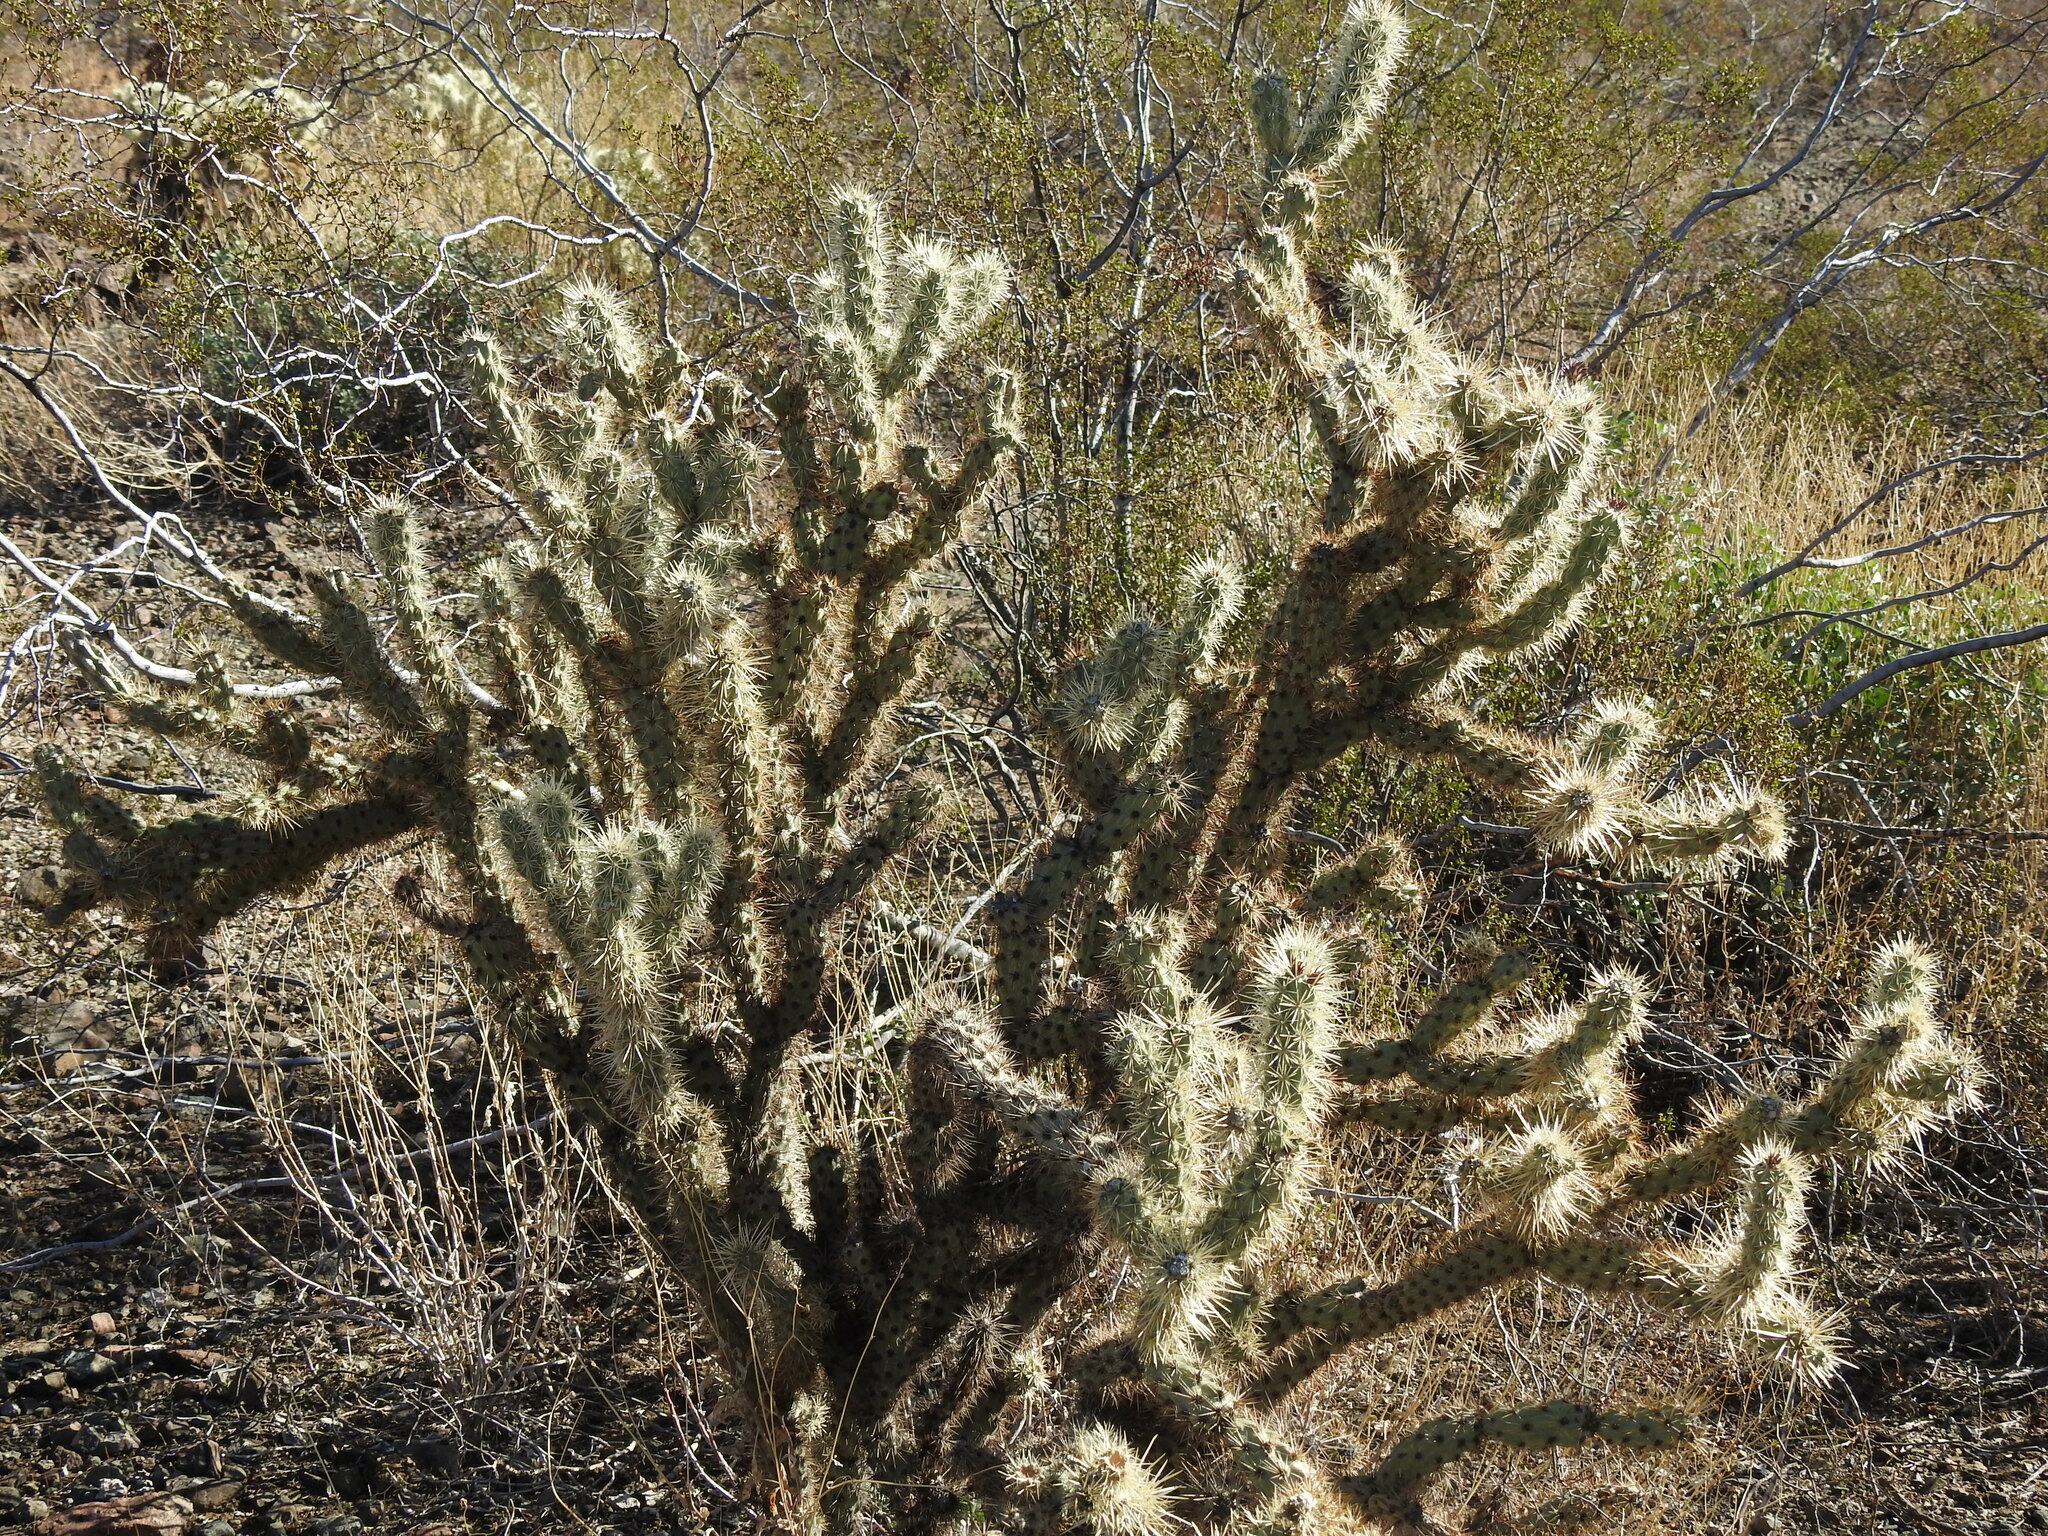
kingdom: Plantae
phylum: Tracheophyta
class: Magnoliopsida
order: Caryophyllales
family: Cactaceae
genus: Cylindropuntia
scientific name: Cylindropuntia acanthocarpa
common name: Buckhorn cholla
